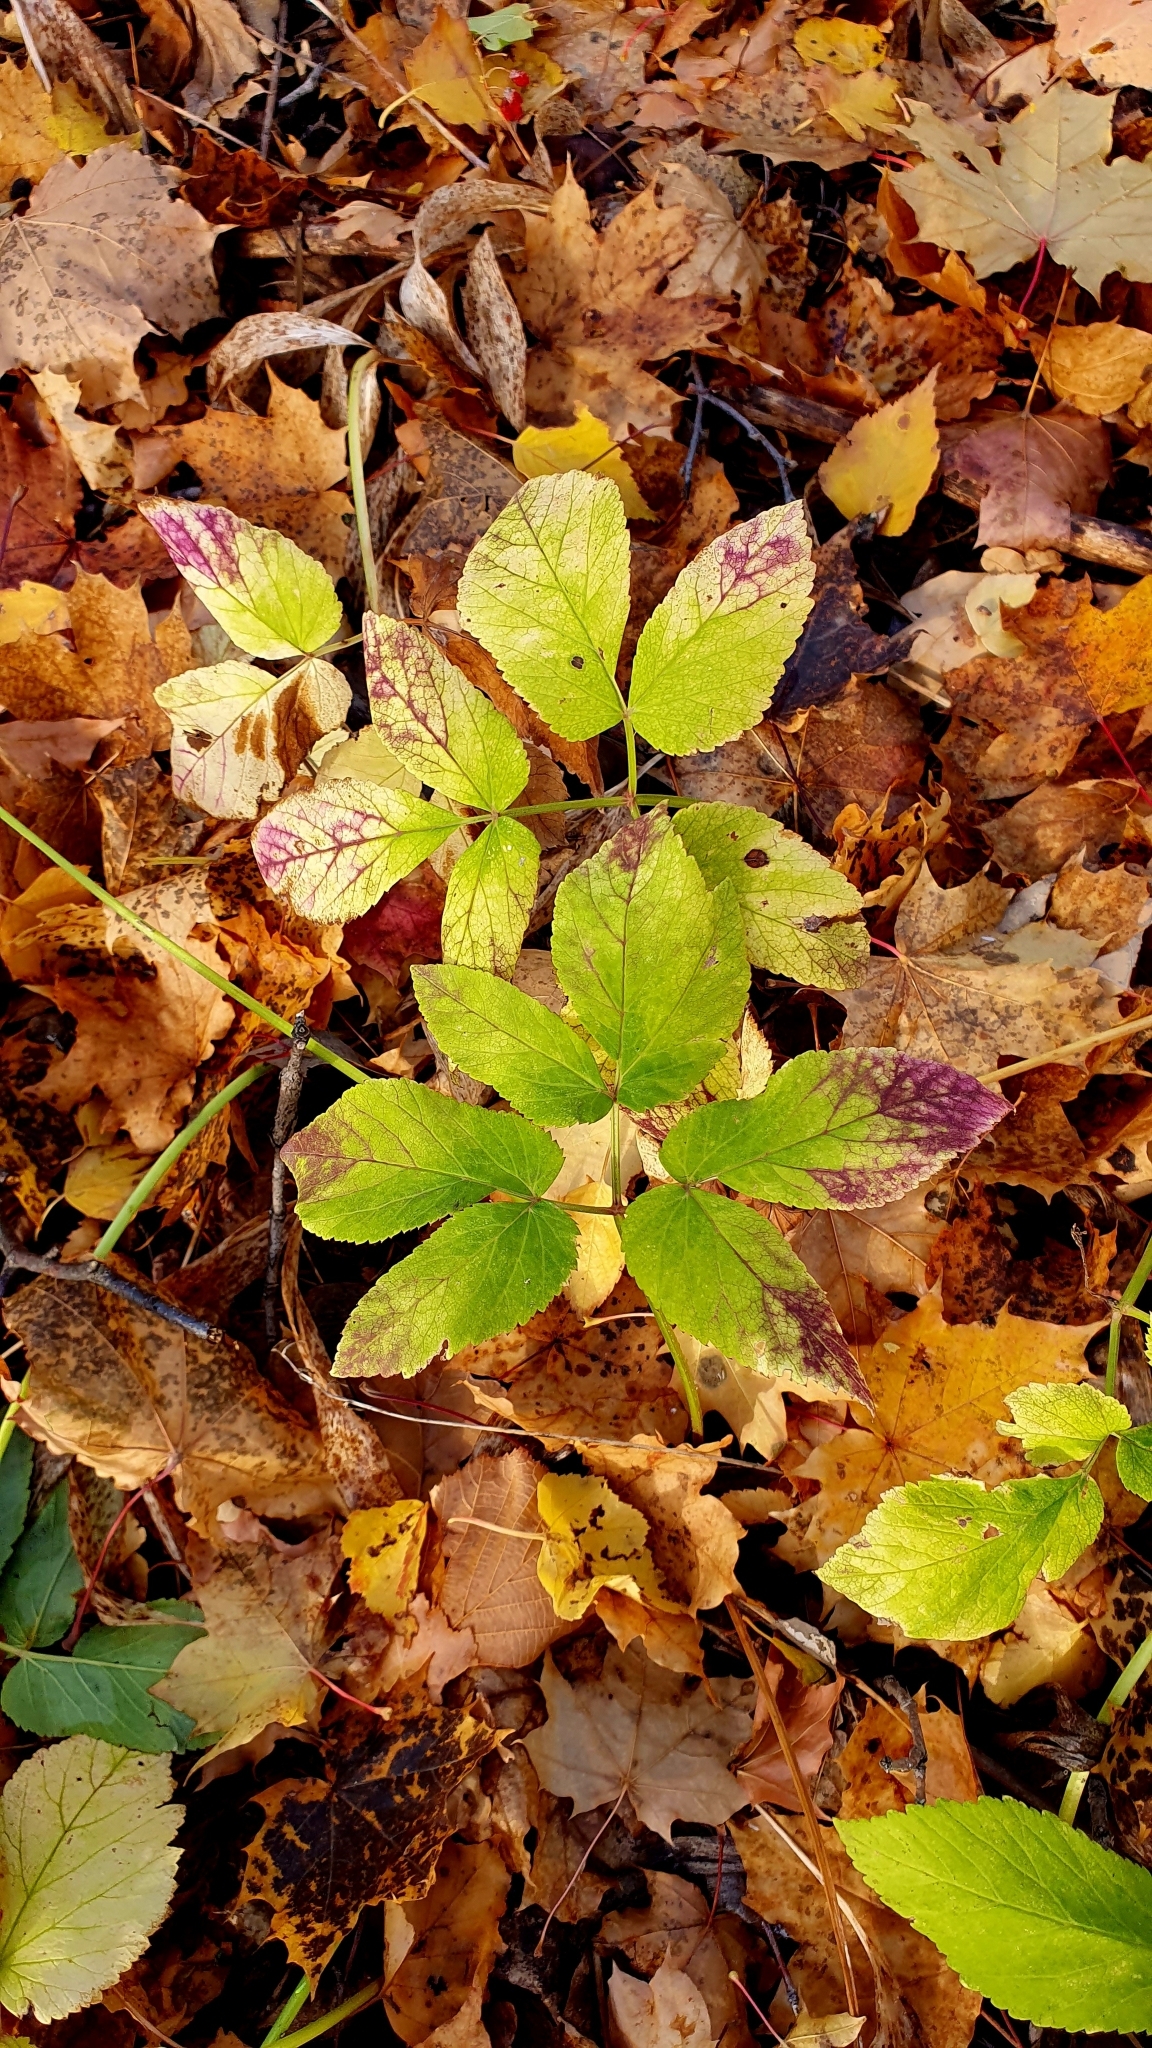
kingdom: Plantae
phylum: Tracheophyta
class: Magnoliopsida
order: Apiales
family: Apiaceae
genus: Aegopodium
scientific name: Aegopodium podagraria
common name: Ground-elder
